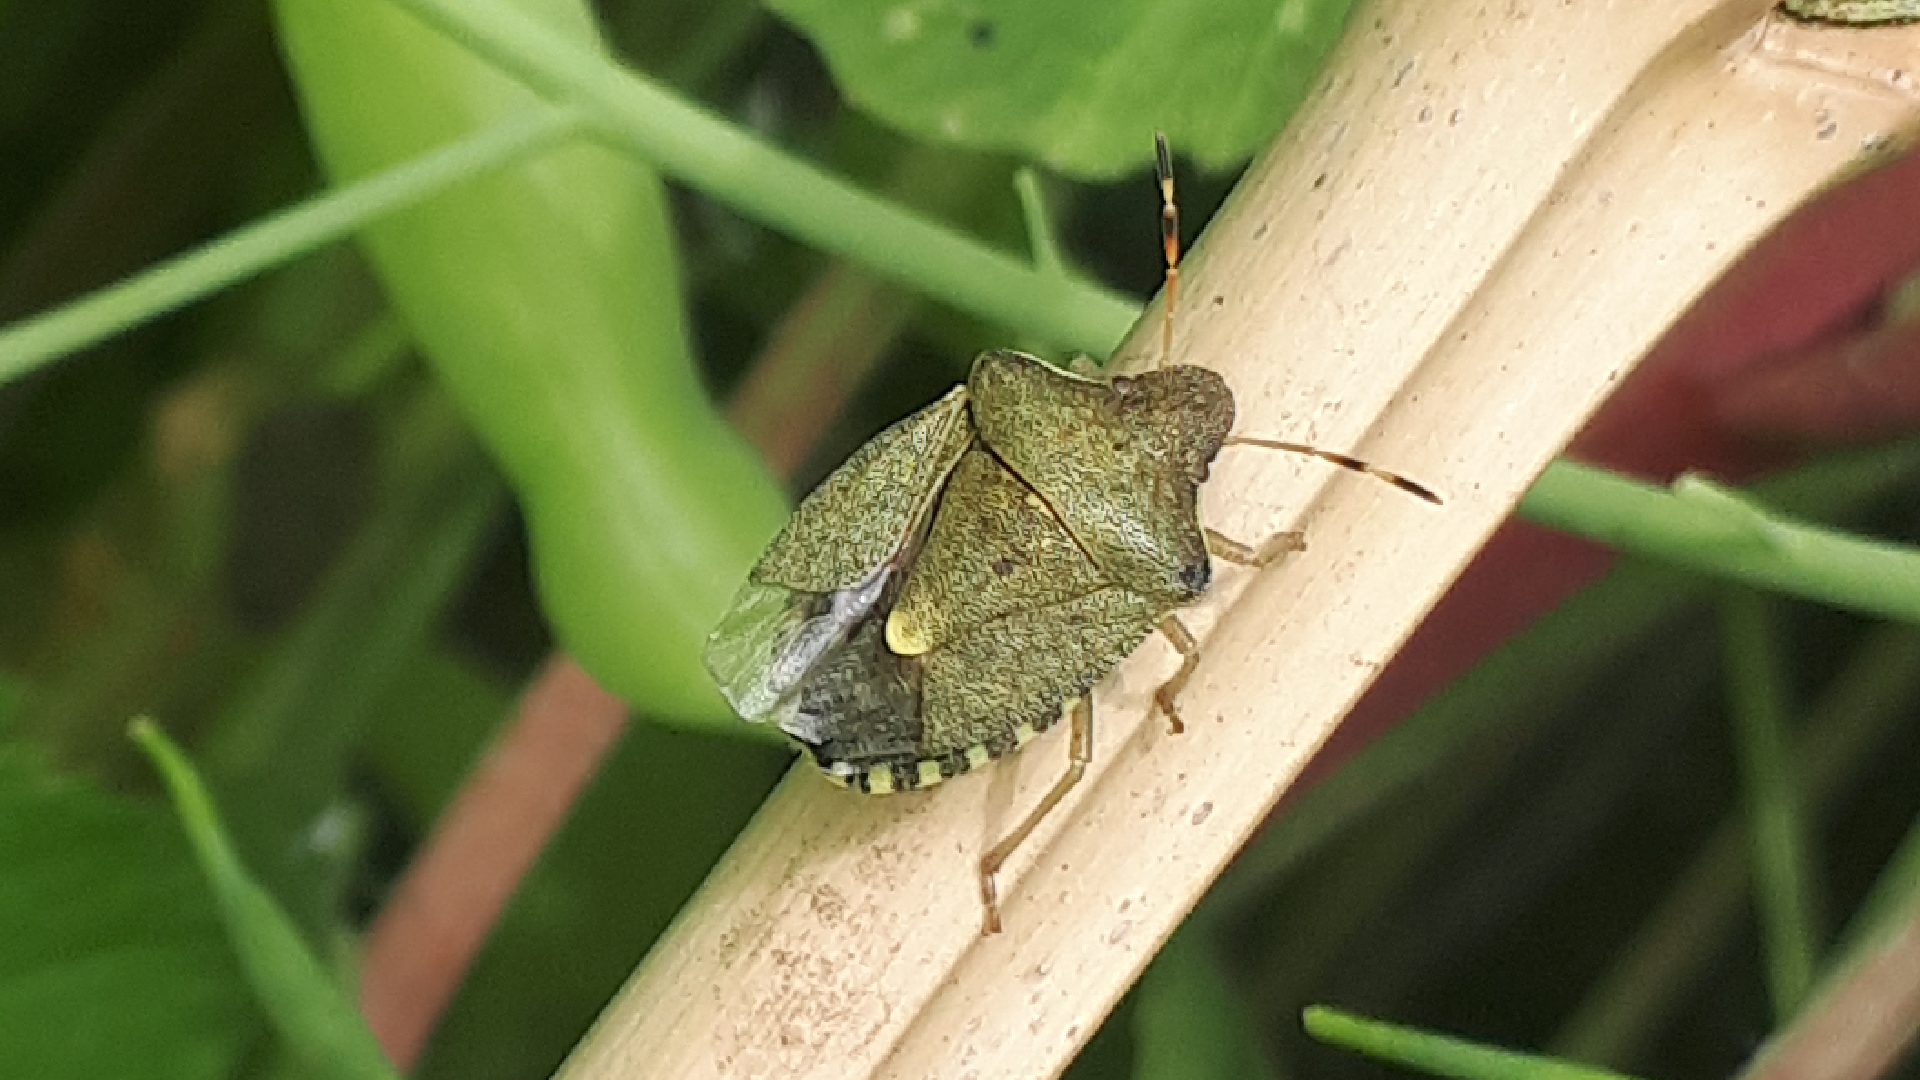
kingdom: Animalia
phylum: Arthropoda
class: Insecta
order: Hemiptera
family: Pentatomidae
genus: Holcostethus
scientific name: Holcostethus strictus
